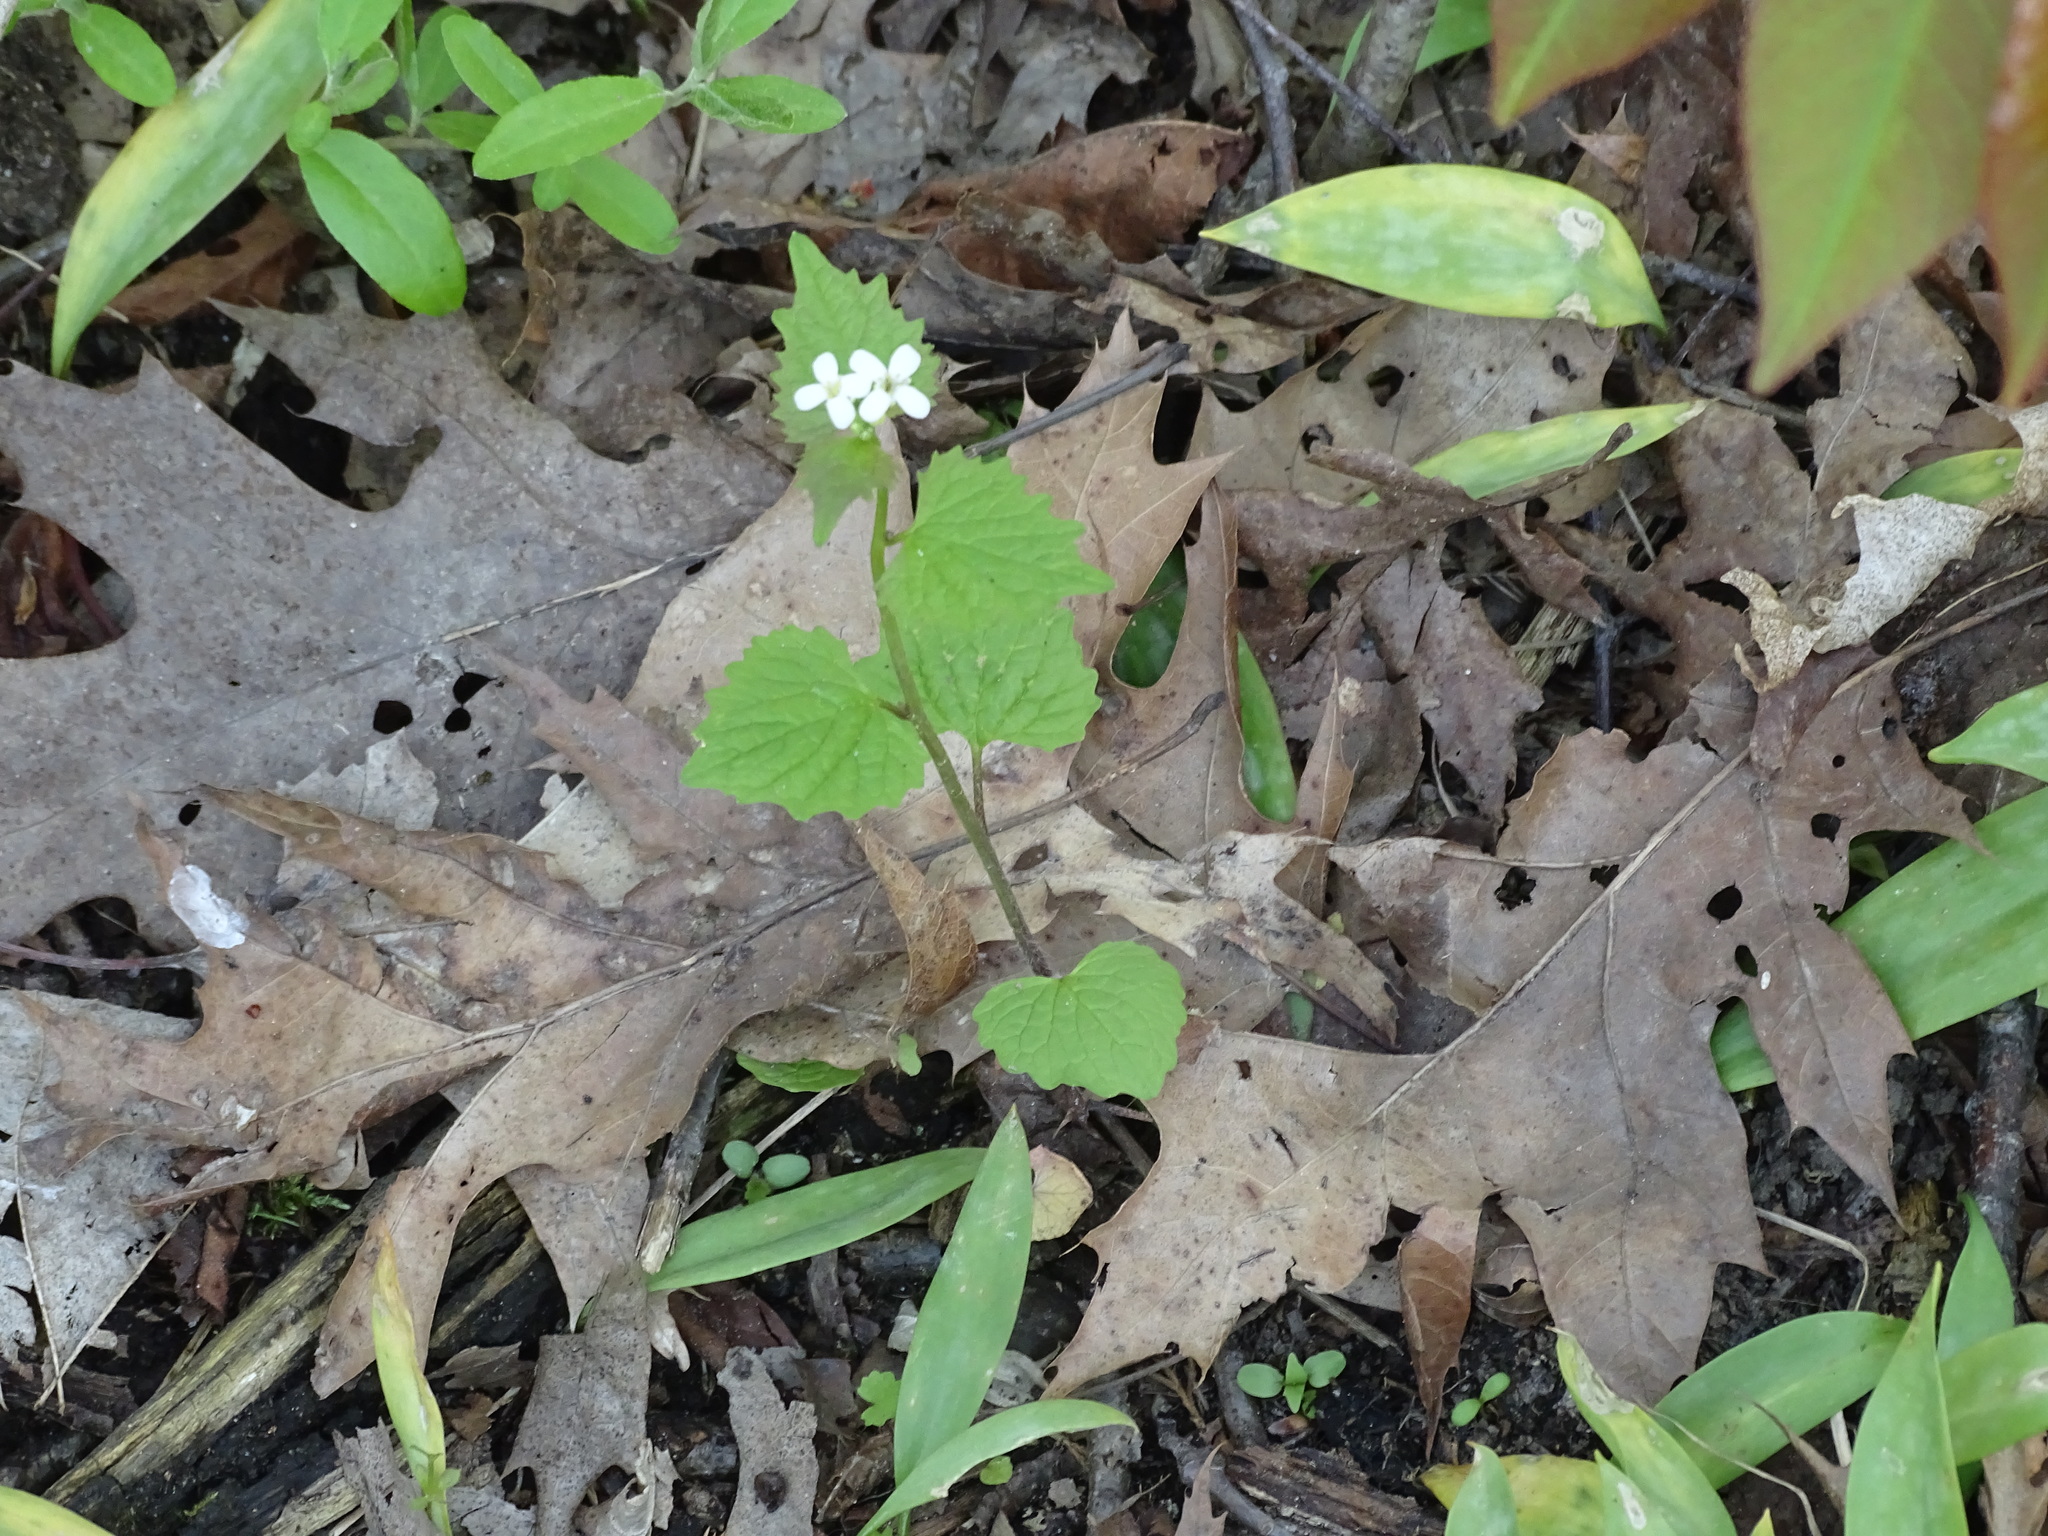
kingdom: Plantae
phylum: Tracheophyta
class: Magnoliopsida
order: Brassicales
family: Brassicaceae
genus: Alliaria
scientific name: Alliaria petiolata
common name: Garlic mustard
